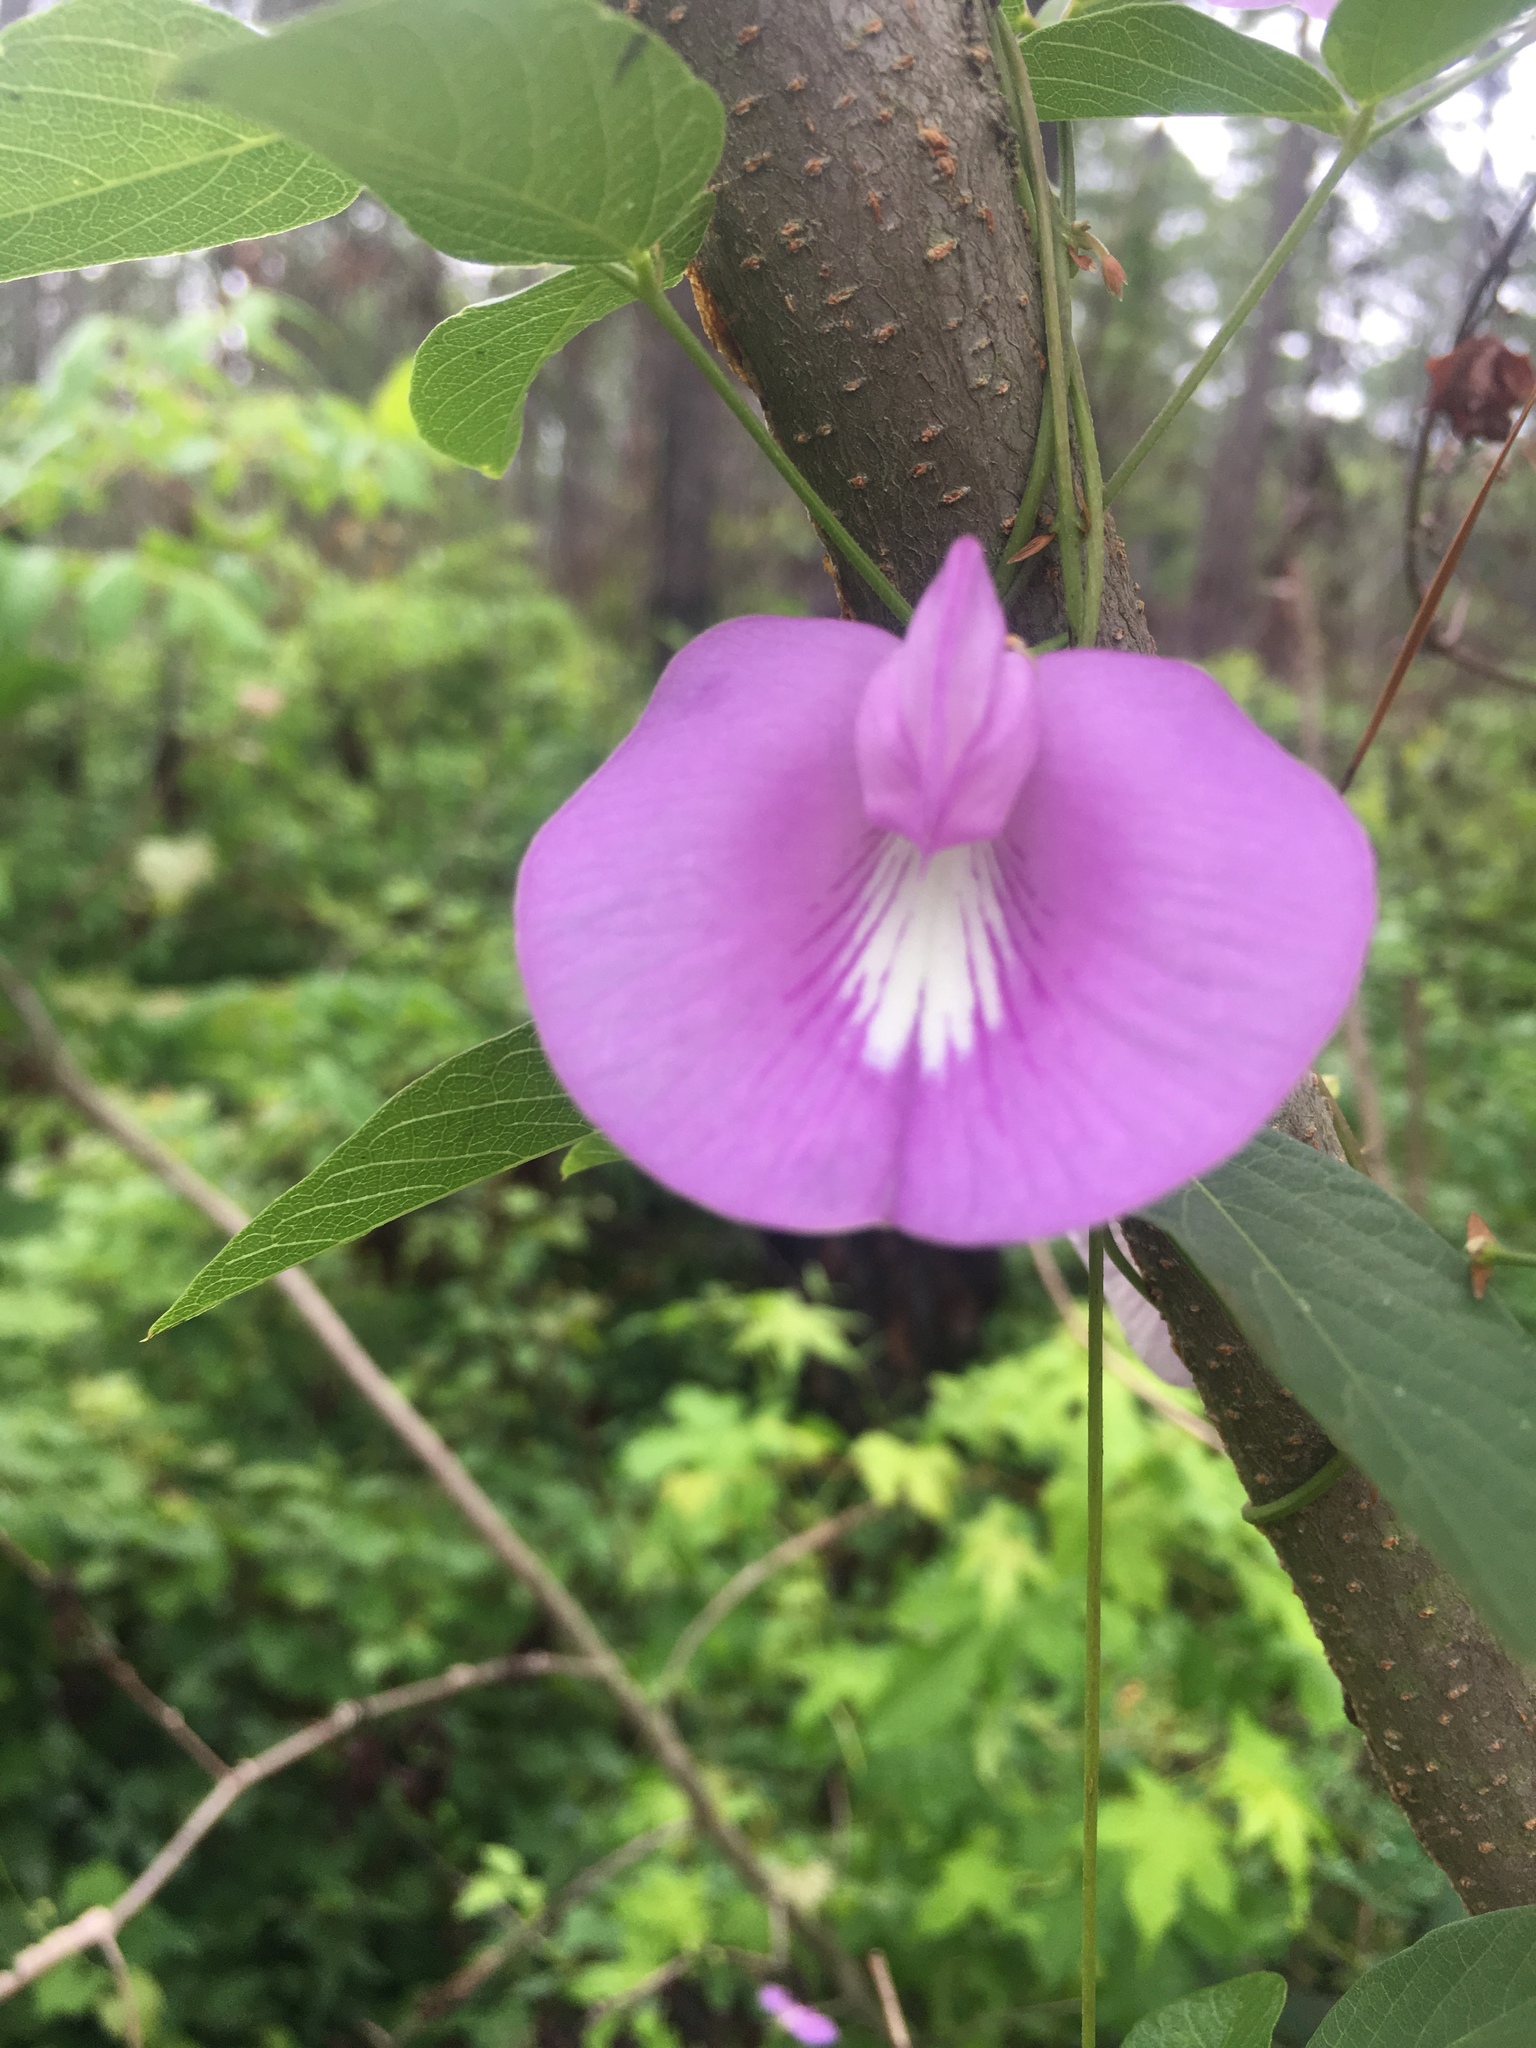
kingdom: Plantae
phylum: Tracheophyta
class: Magnoliopsida
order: Fabales
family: Fabaceae
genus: Centrosema
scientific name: Centrosema virginianum
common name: Butterfly-pea
